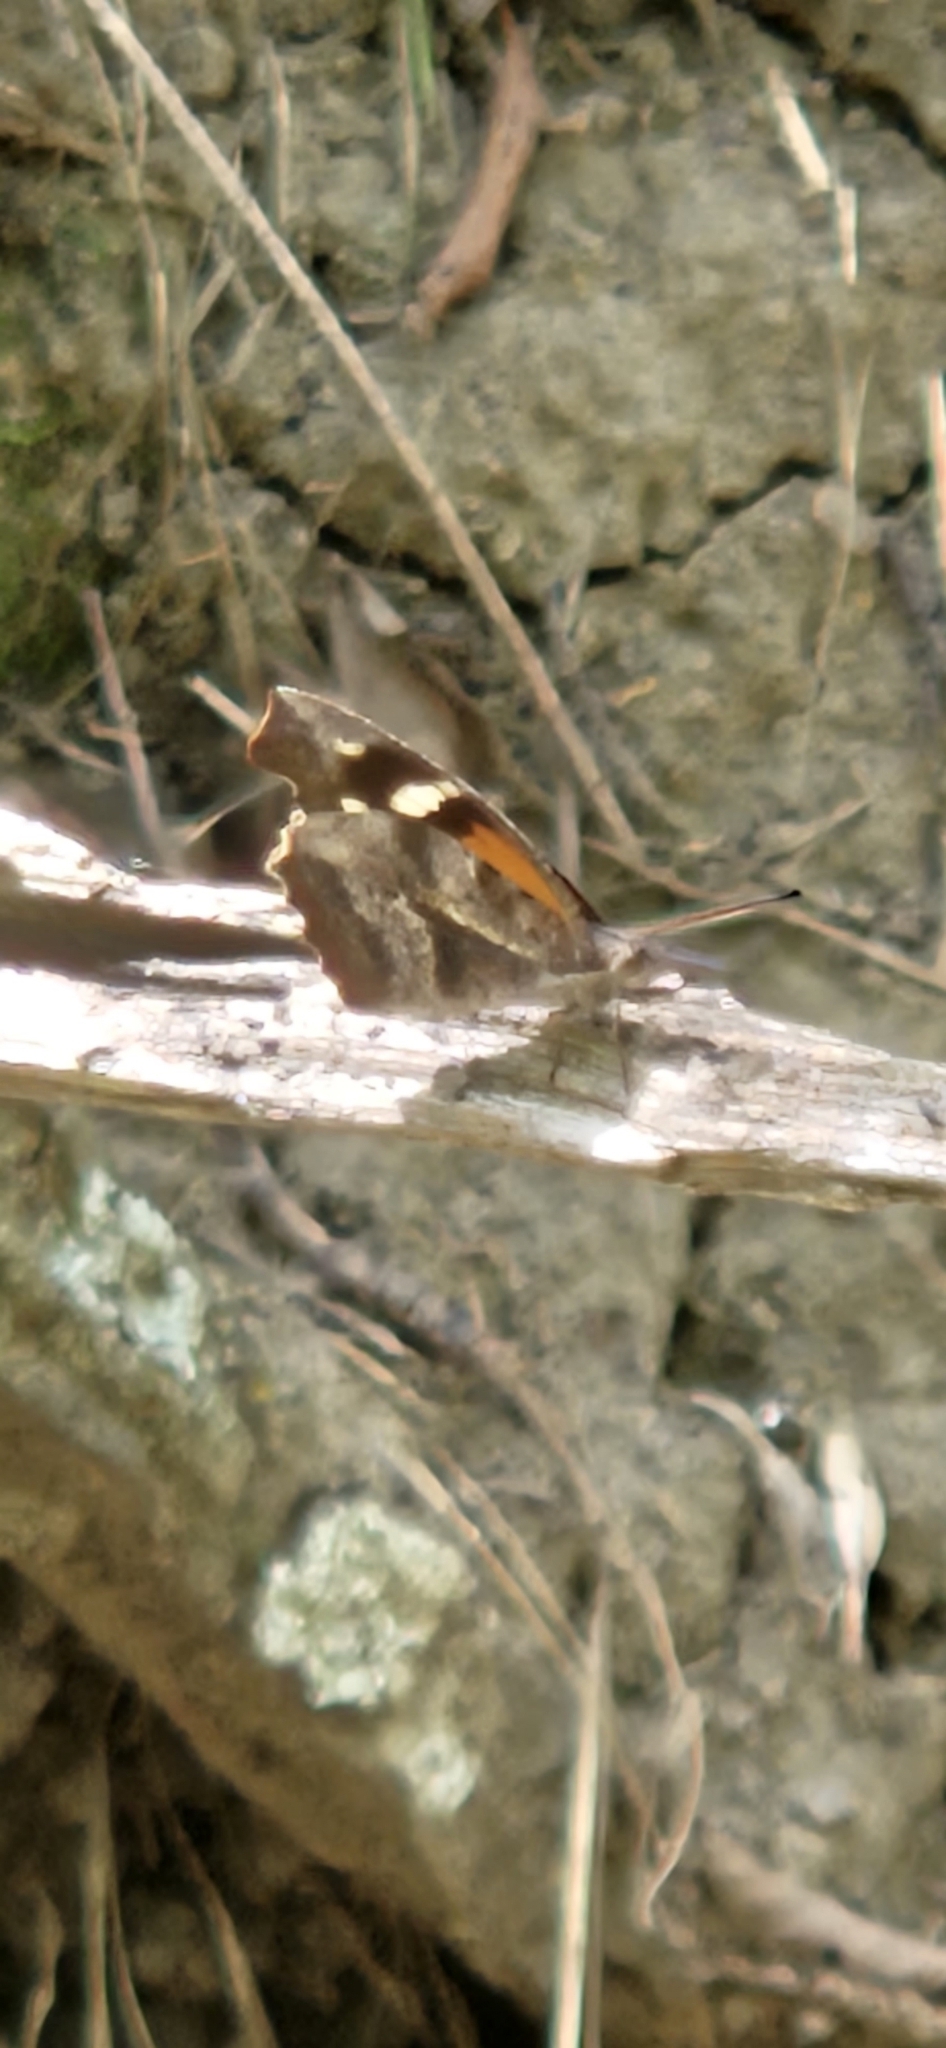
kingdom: Animalia
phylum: Arthropoda
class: Insecta
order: Lepidoptera
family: Nymphalidae
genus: Libytheana
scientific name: Libytheana carinenta
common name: American snout
